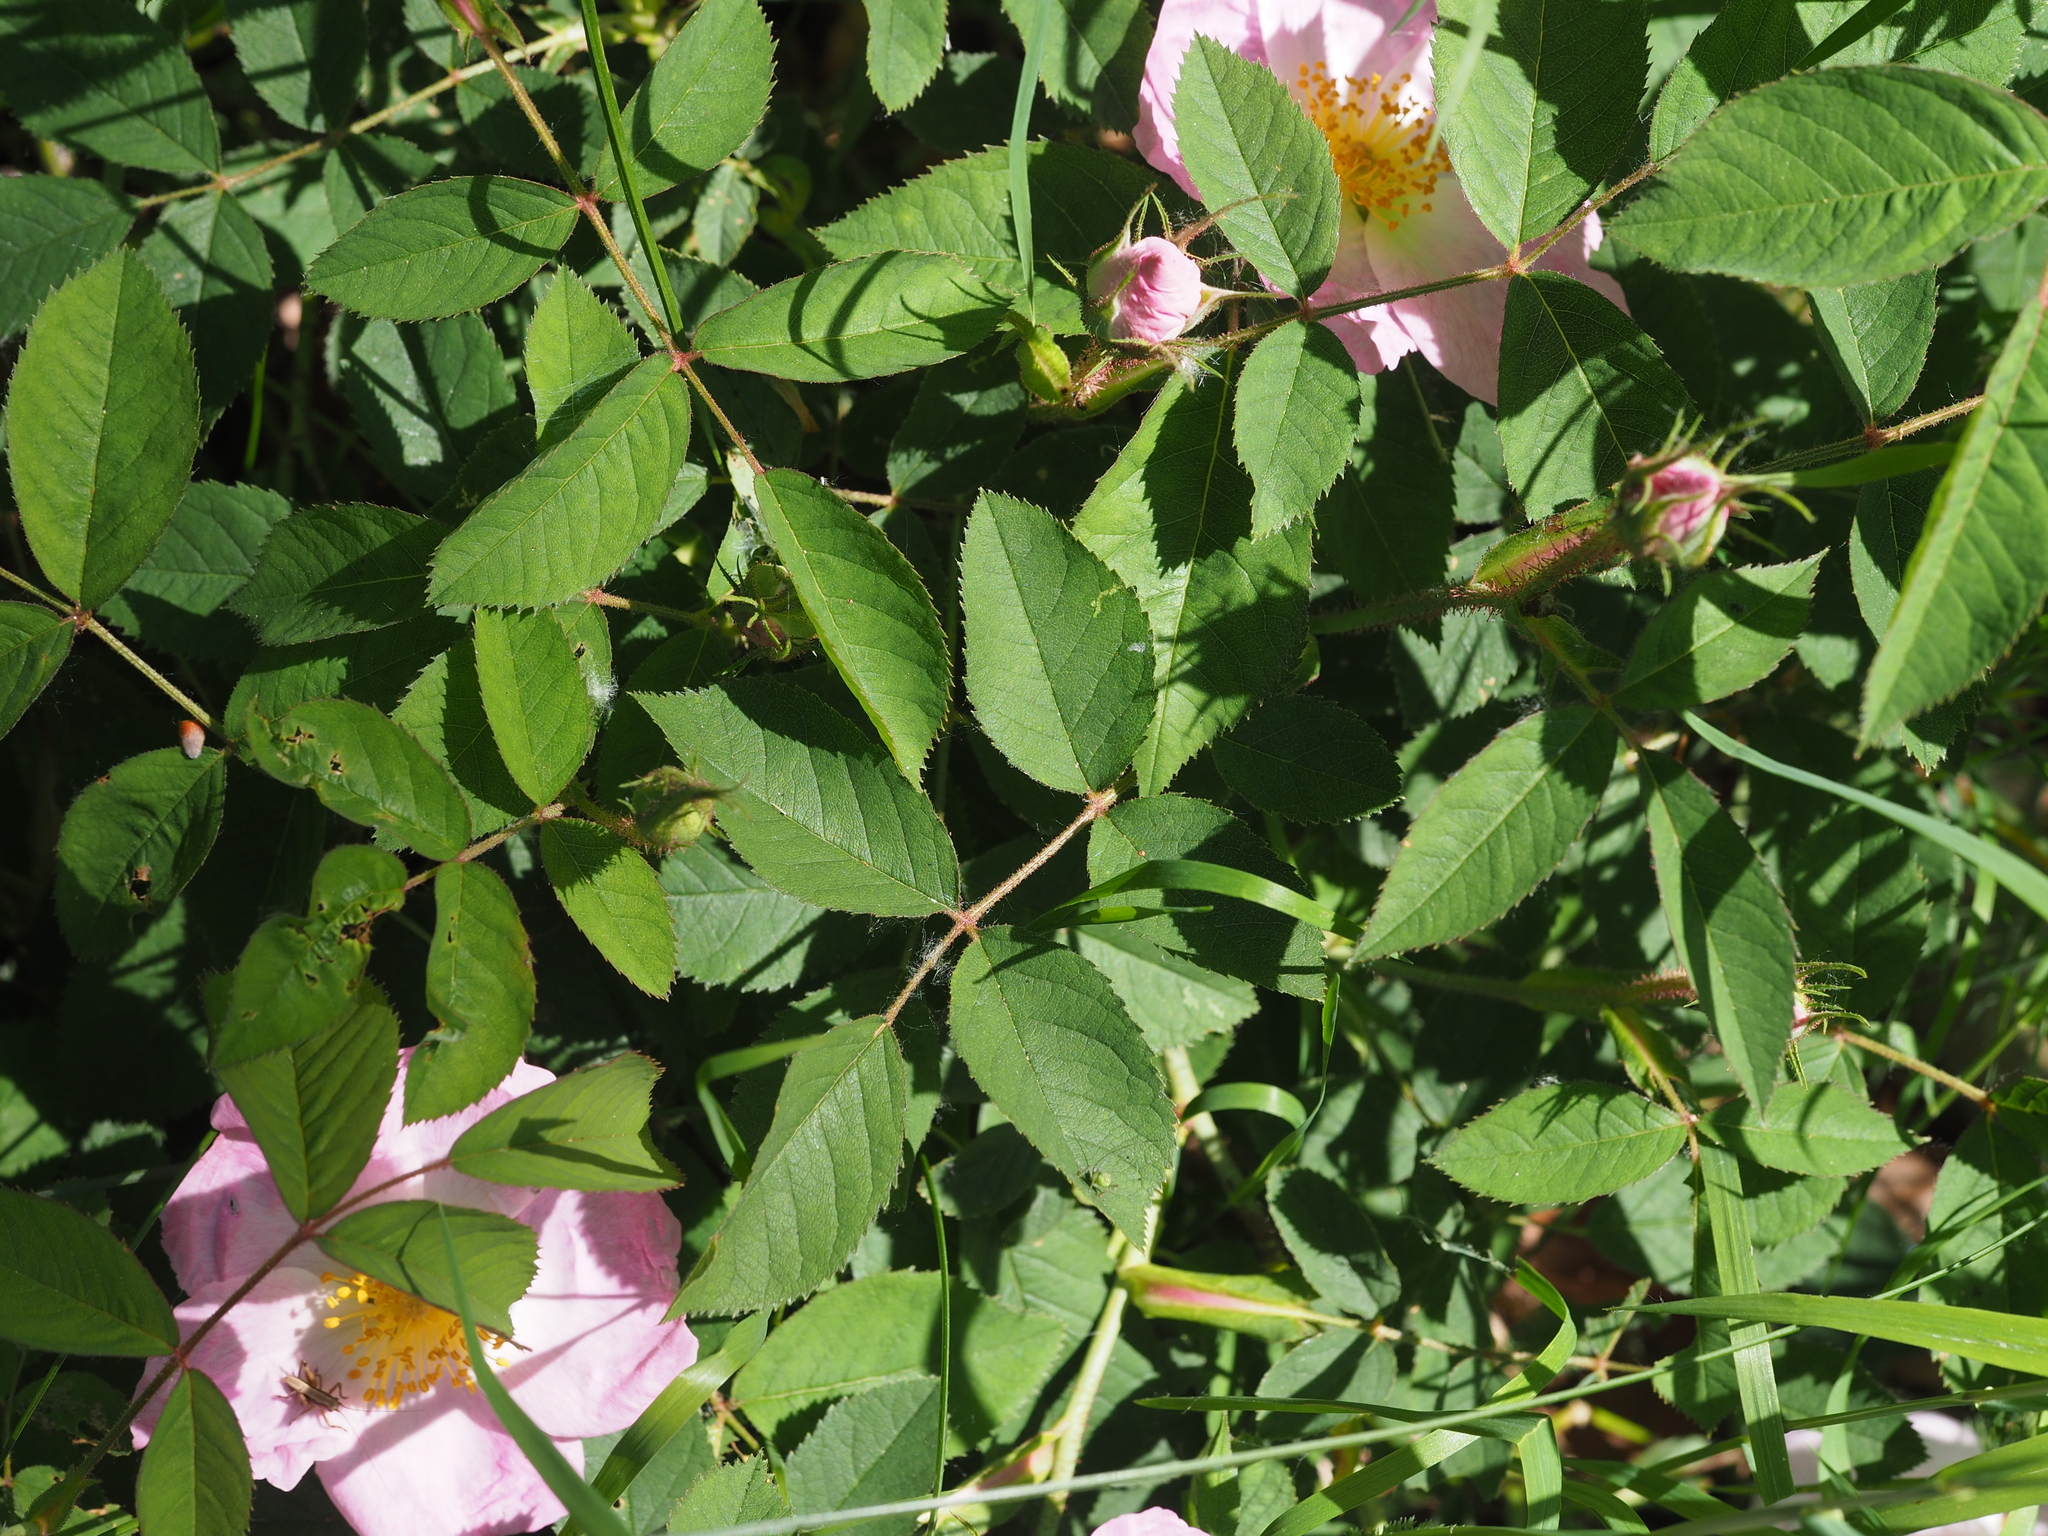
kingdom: Plantae
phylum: Tracheophyta
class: Magnoliopsida
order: Rosales
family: Rosaceae
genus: Rosa
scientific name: Rosa gallica
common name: French rose
